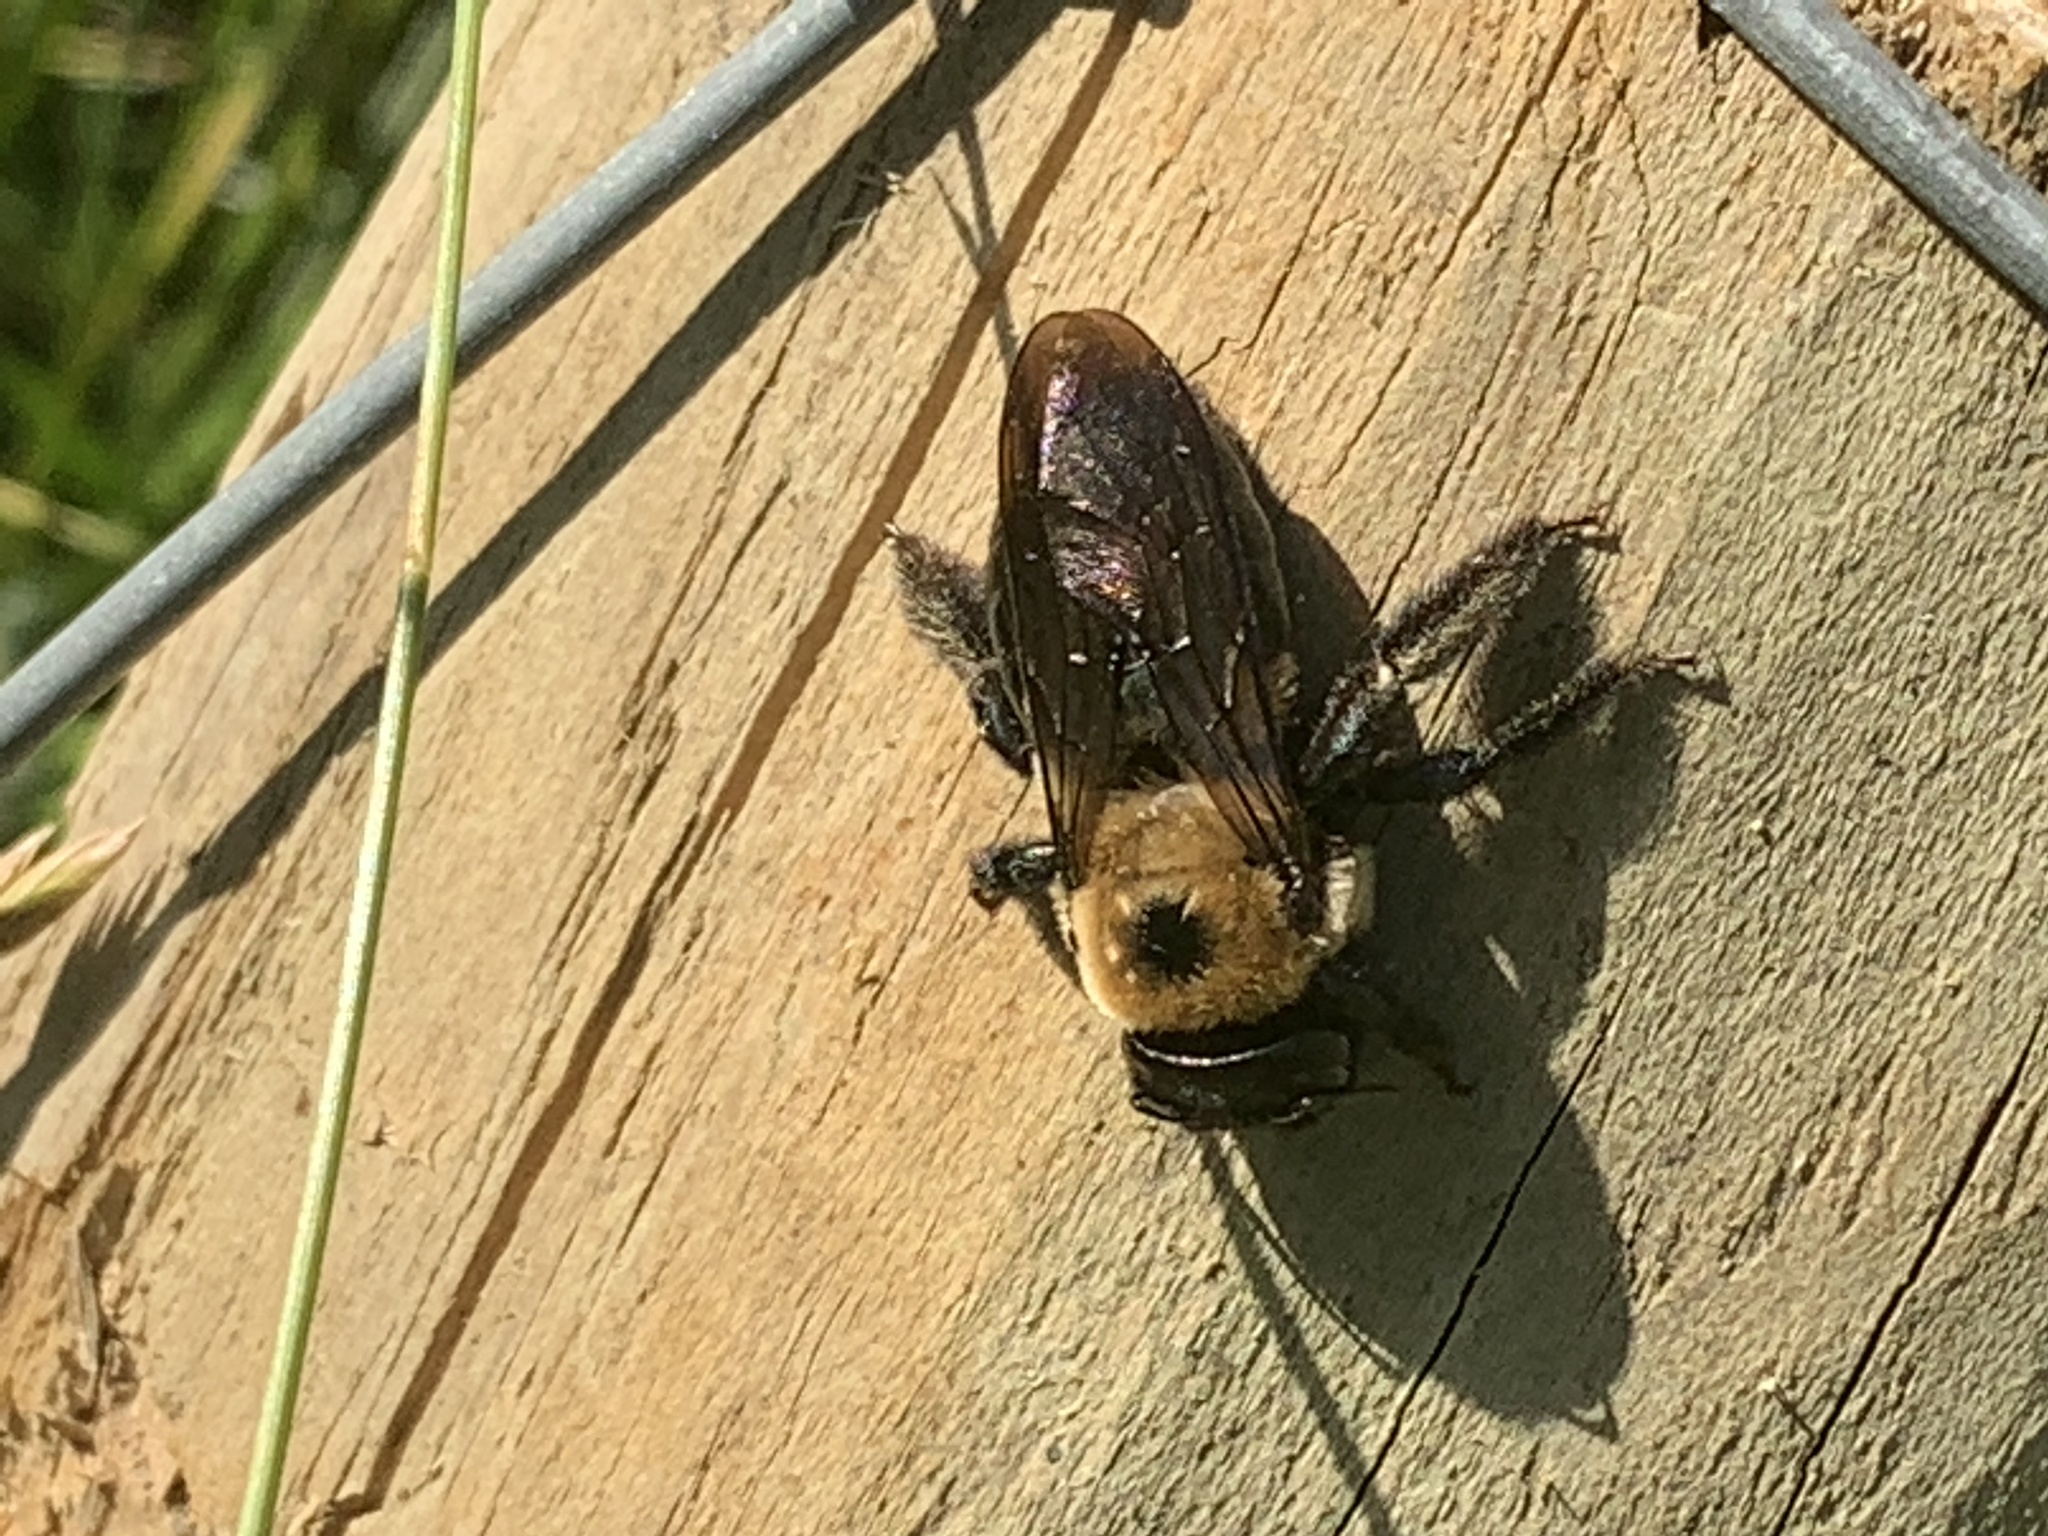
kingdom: Animalia
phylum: Arthropoda
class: Insecta
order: Hymenoptera
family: Apidae
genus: Xylocopa
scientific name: Xylocopa virginica
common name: Carpenter bee
